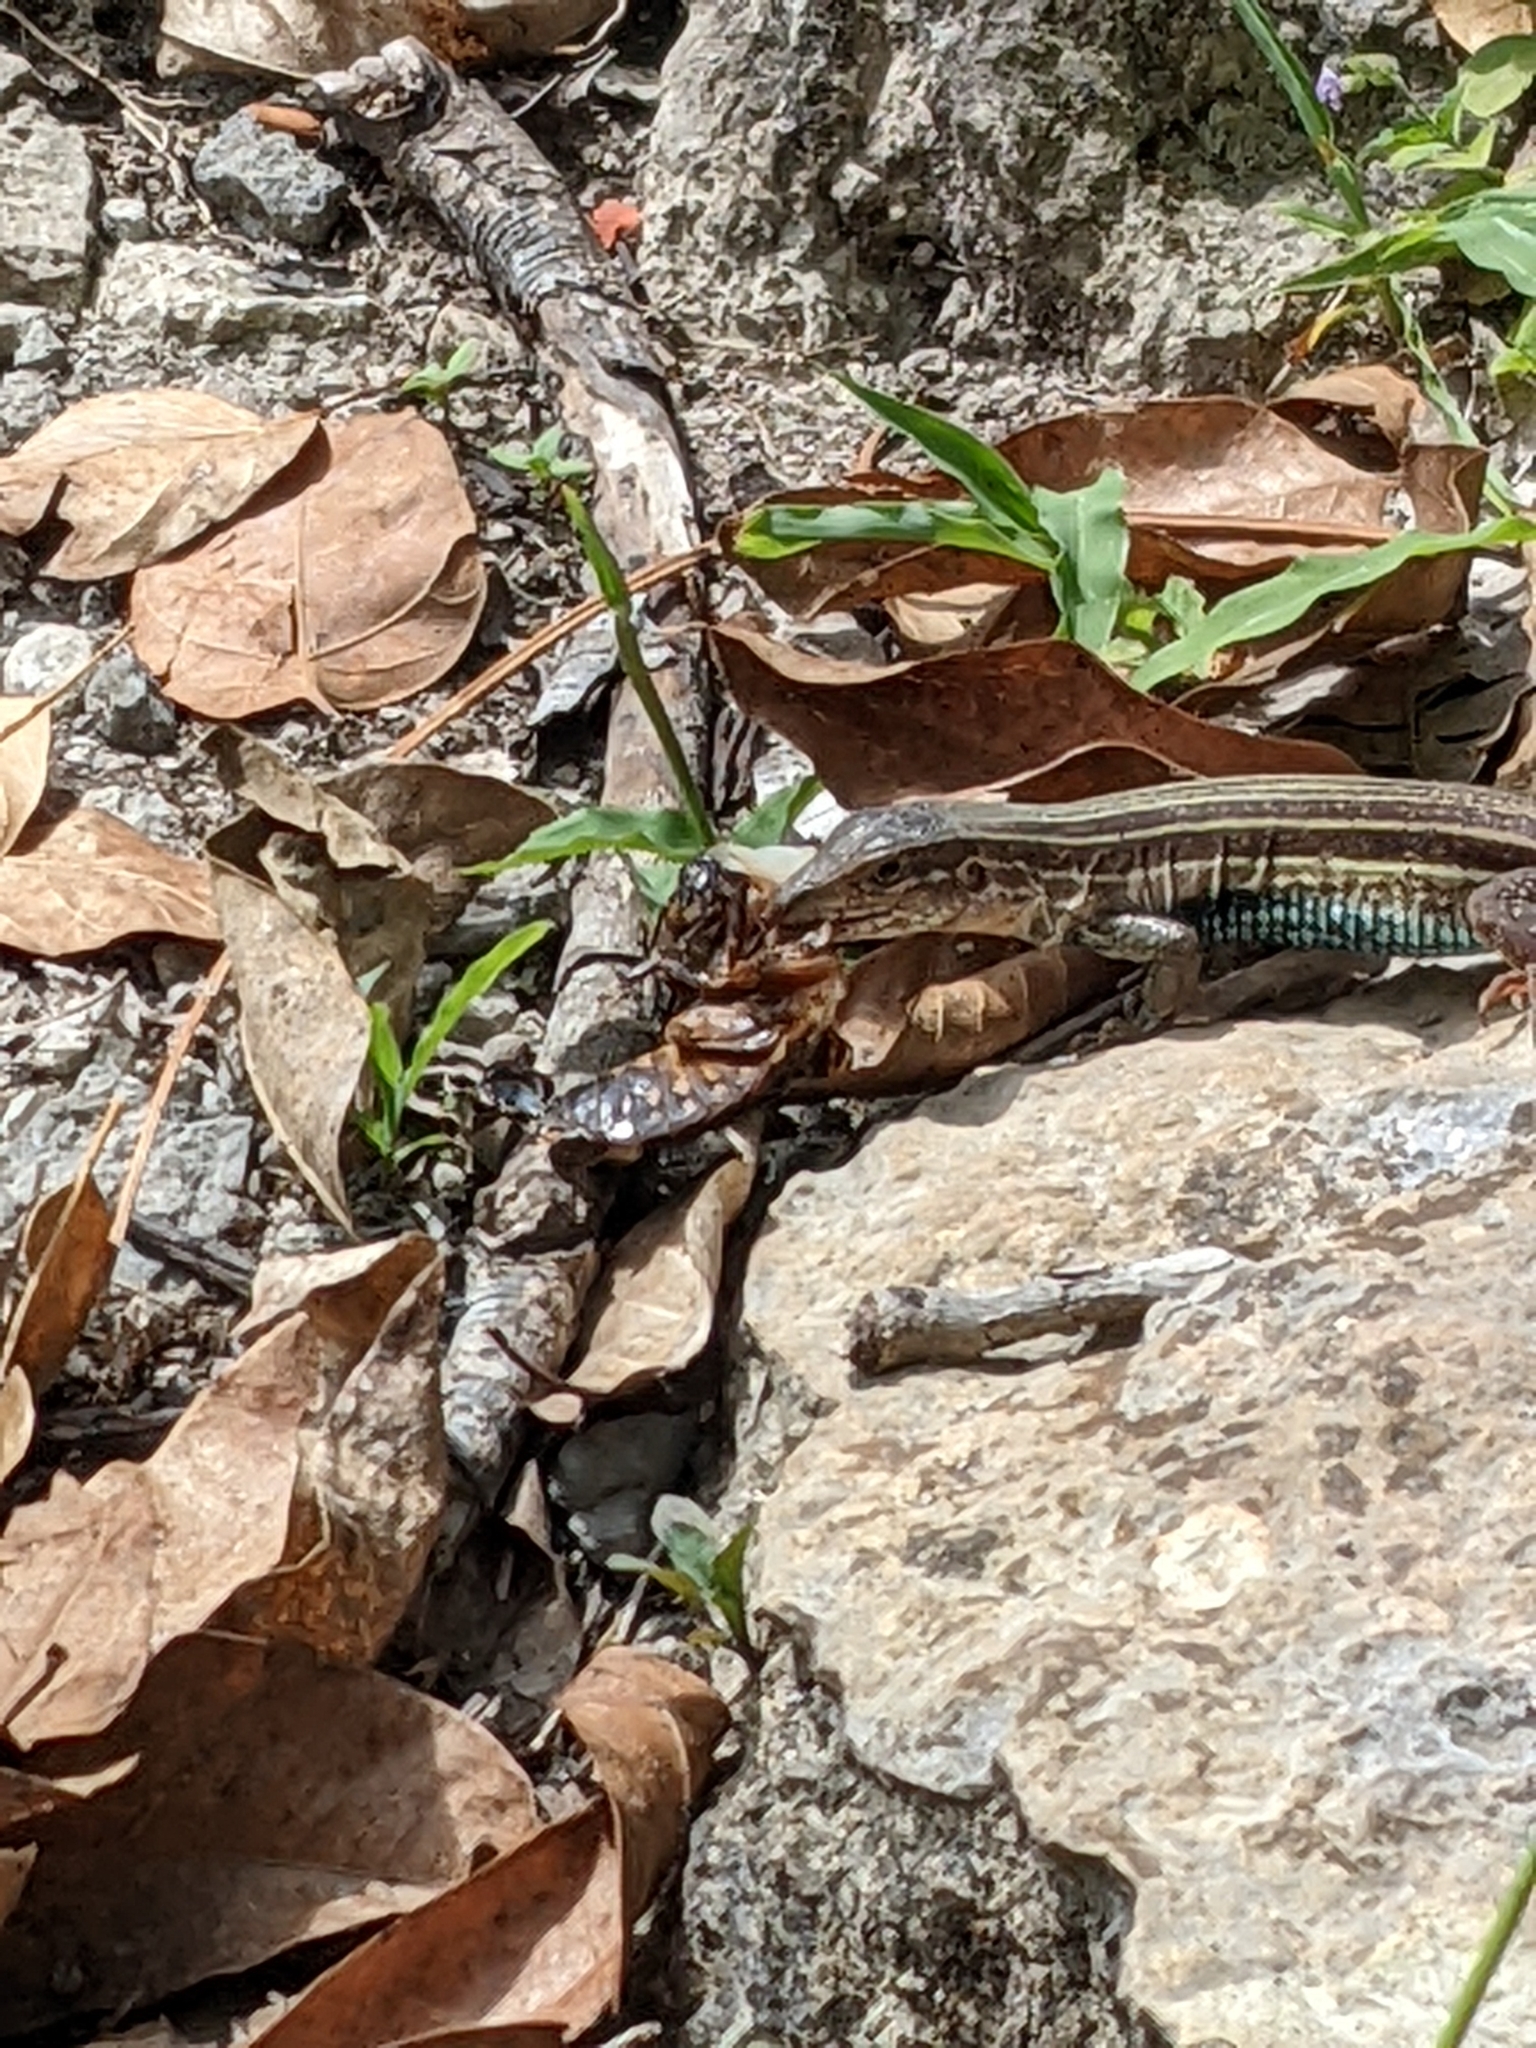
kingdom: Animalia
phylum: Chordata
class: Squamata
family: Teiidae
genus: Aspidoscelis
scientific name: Aspidoscelis angusticeps
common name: Yucatan whiptail
